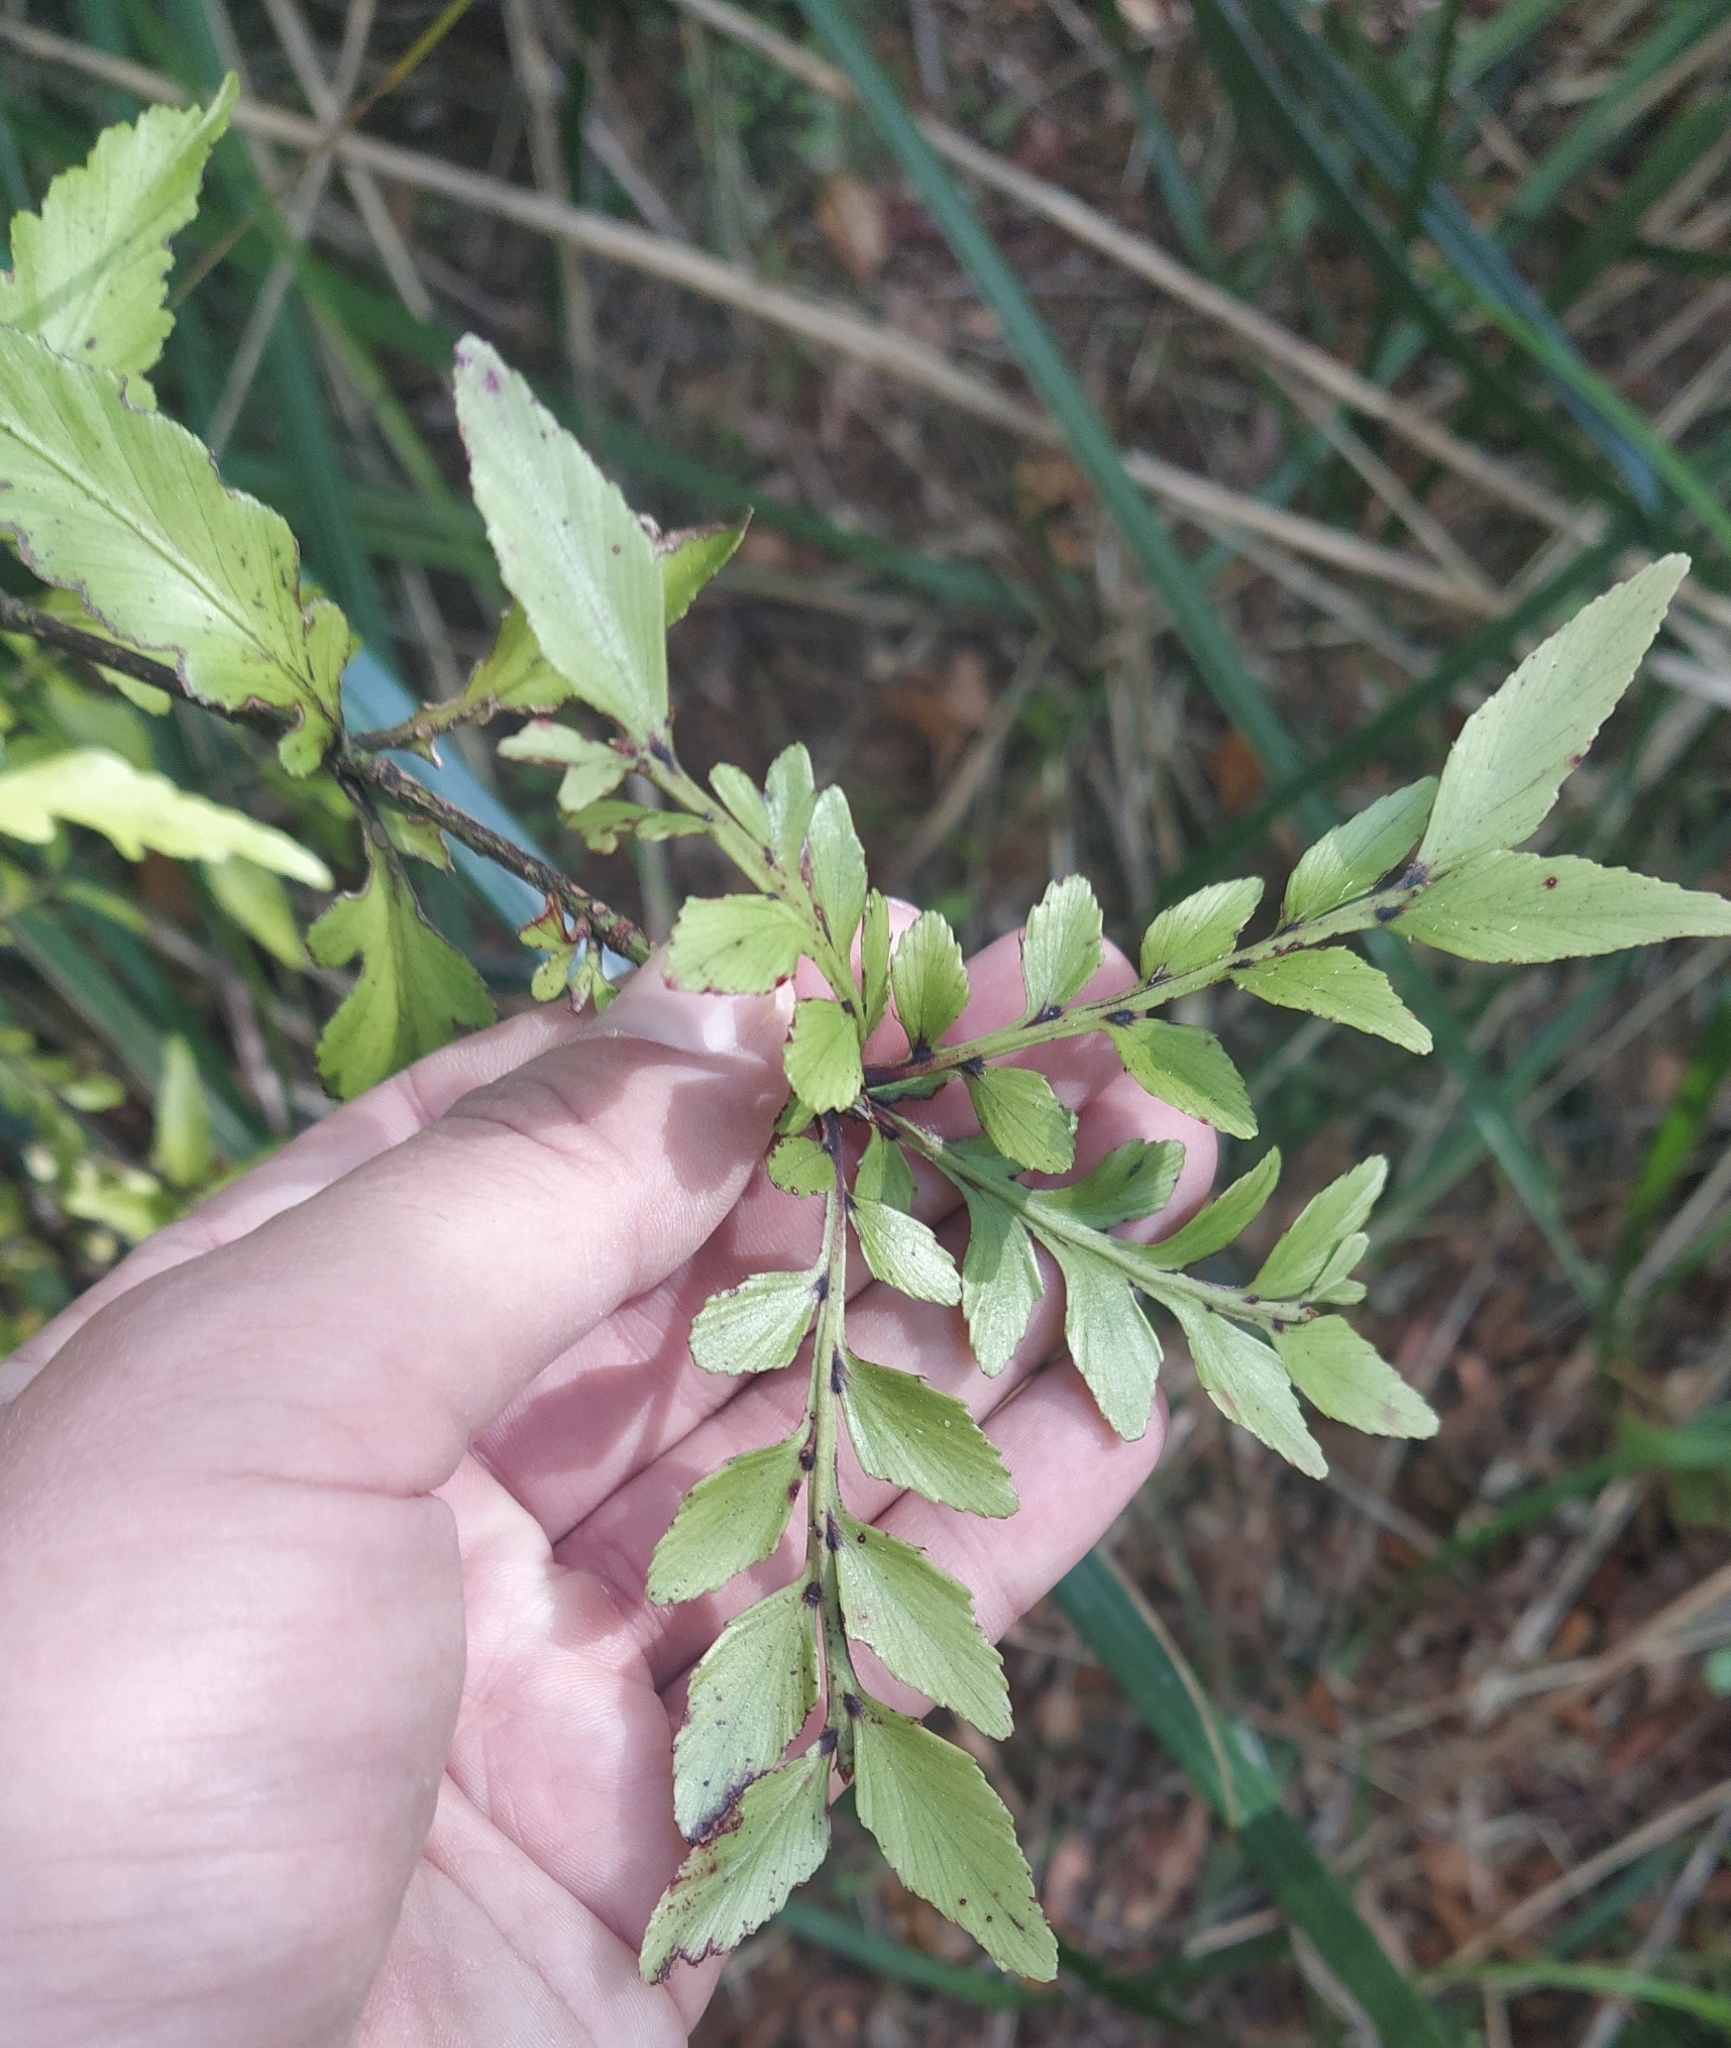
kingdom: Plantae
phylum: Tracheophyta
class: Pinopsida
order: Pinales
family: Phyllocladaceae
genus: Phyllocladus
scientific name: Phyllocladus trichomanoides
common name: Celery pine
